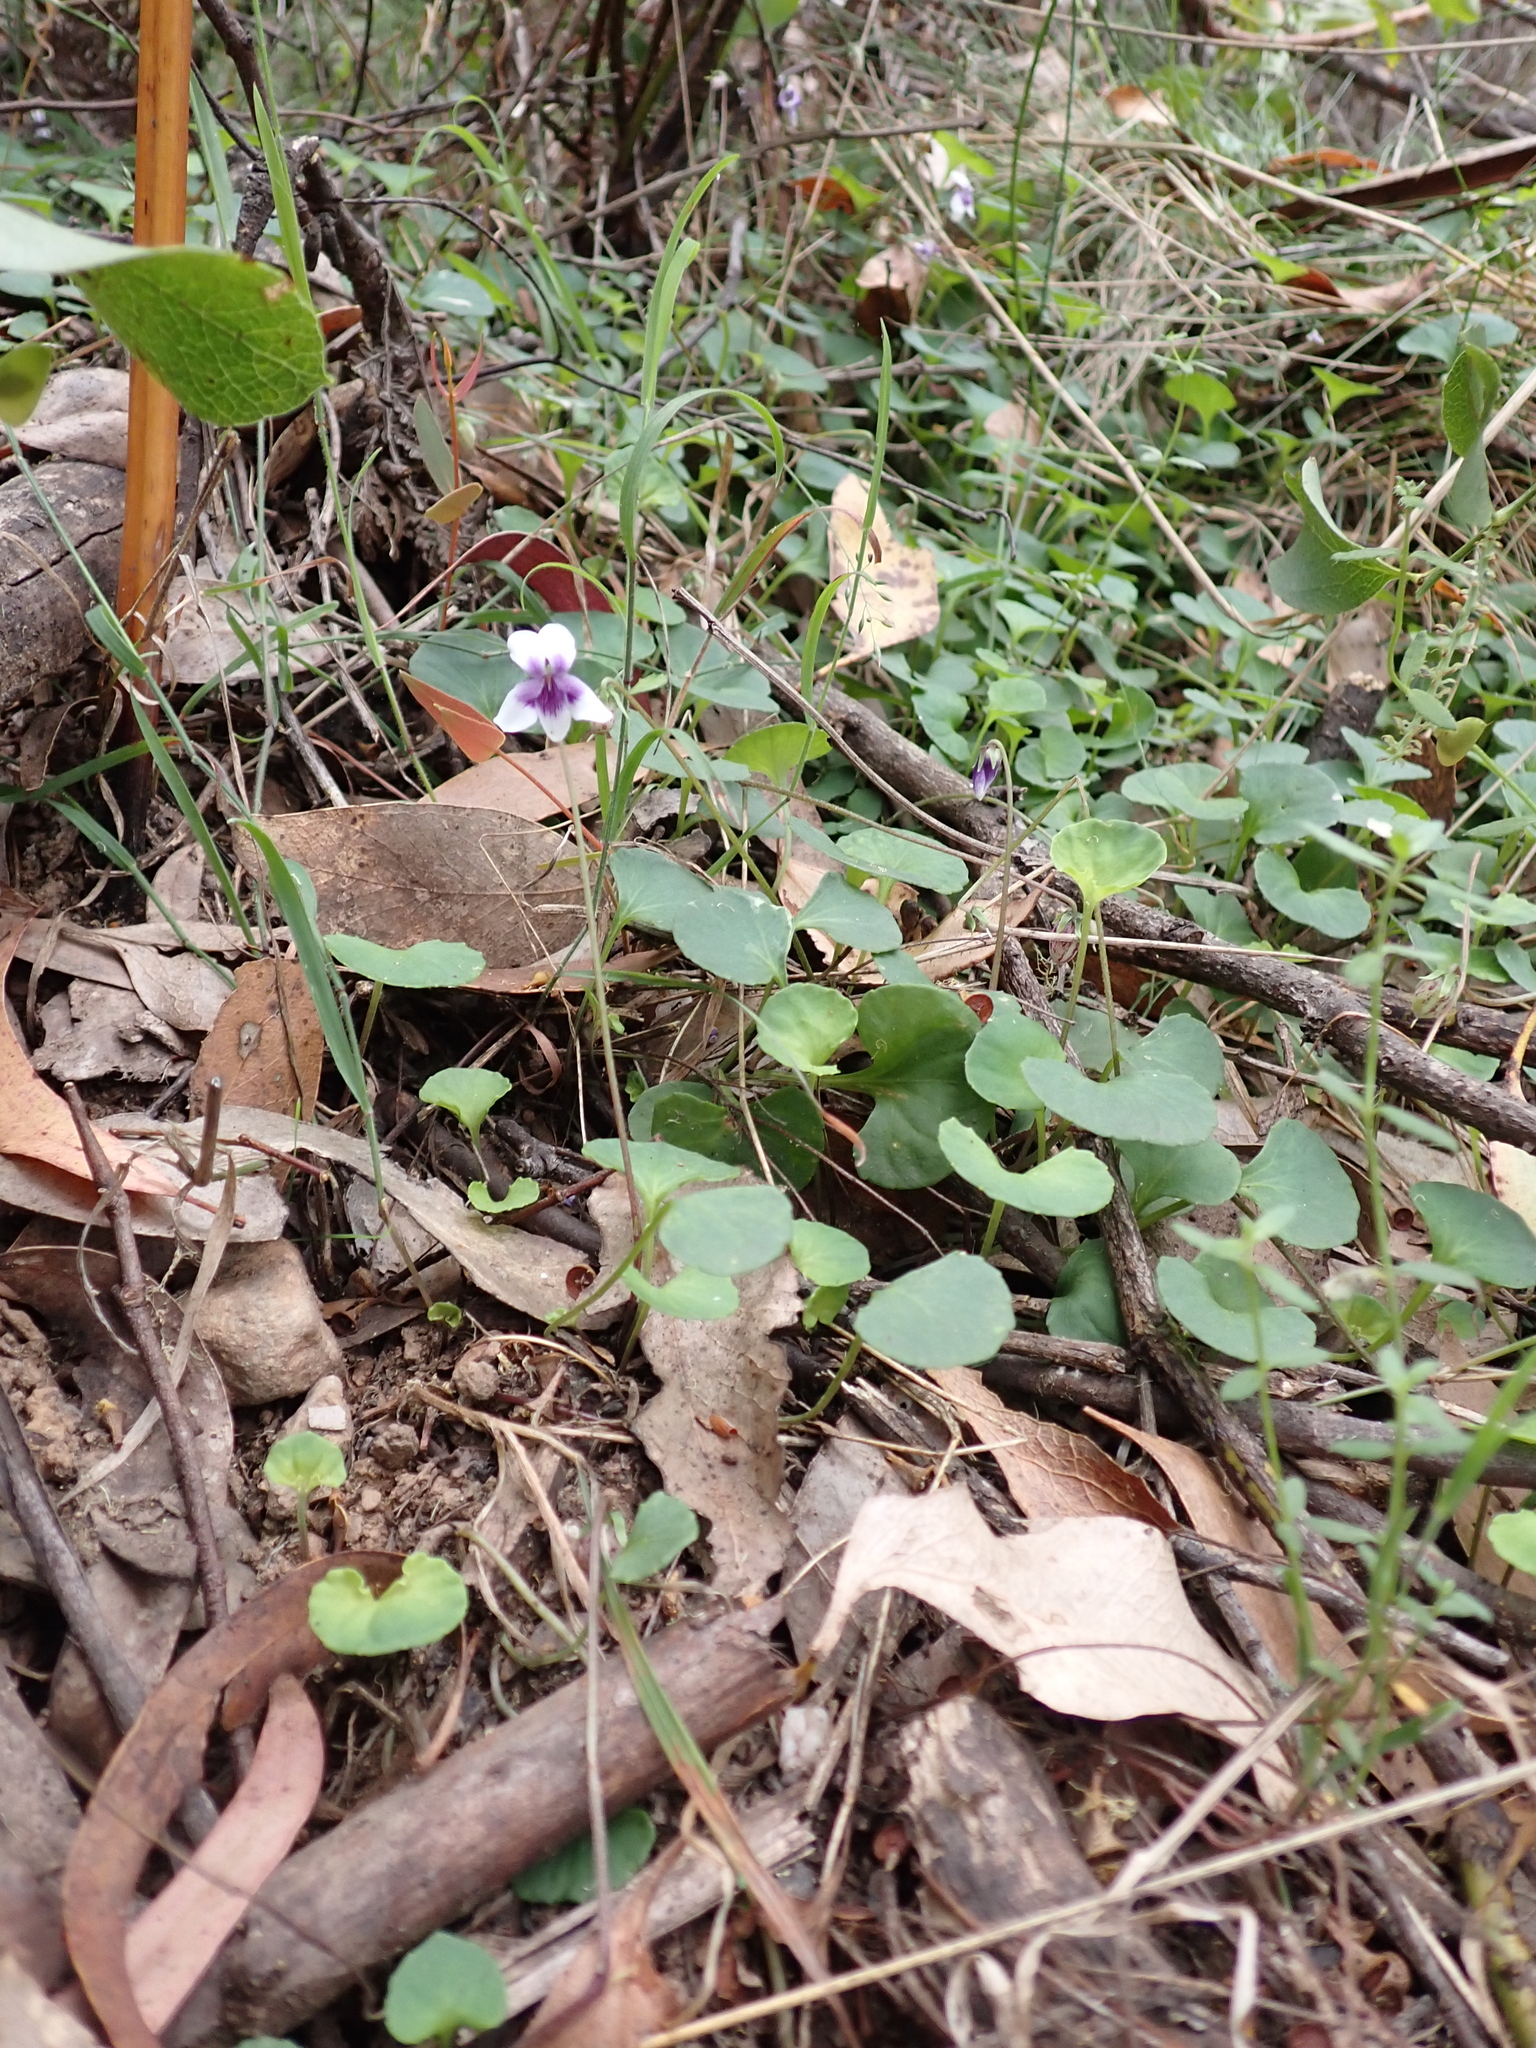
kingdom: Plantae
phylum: Tracheophyta
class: Magnoliopsida
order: Malpighiales
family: Violaceae
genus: Viola
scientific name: Viola hederacea
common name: Australian violet
